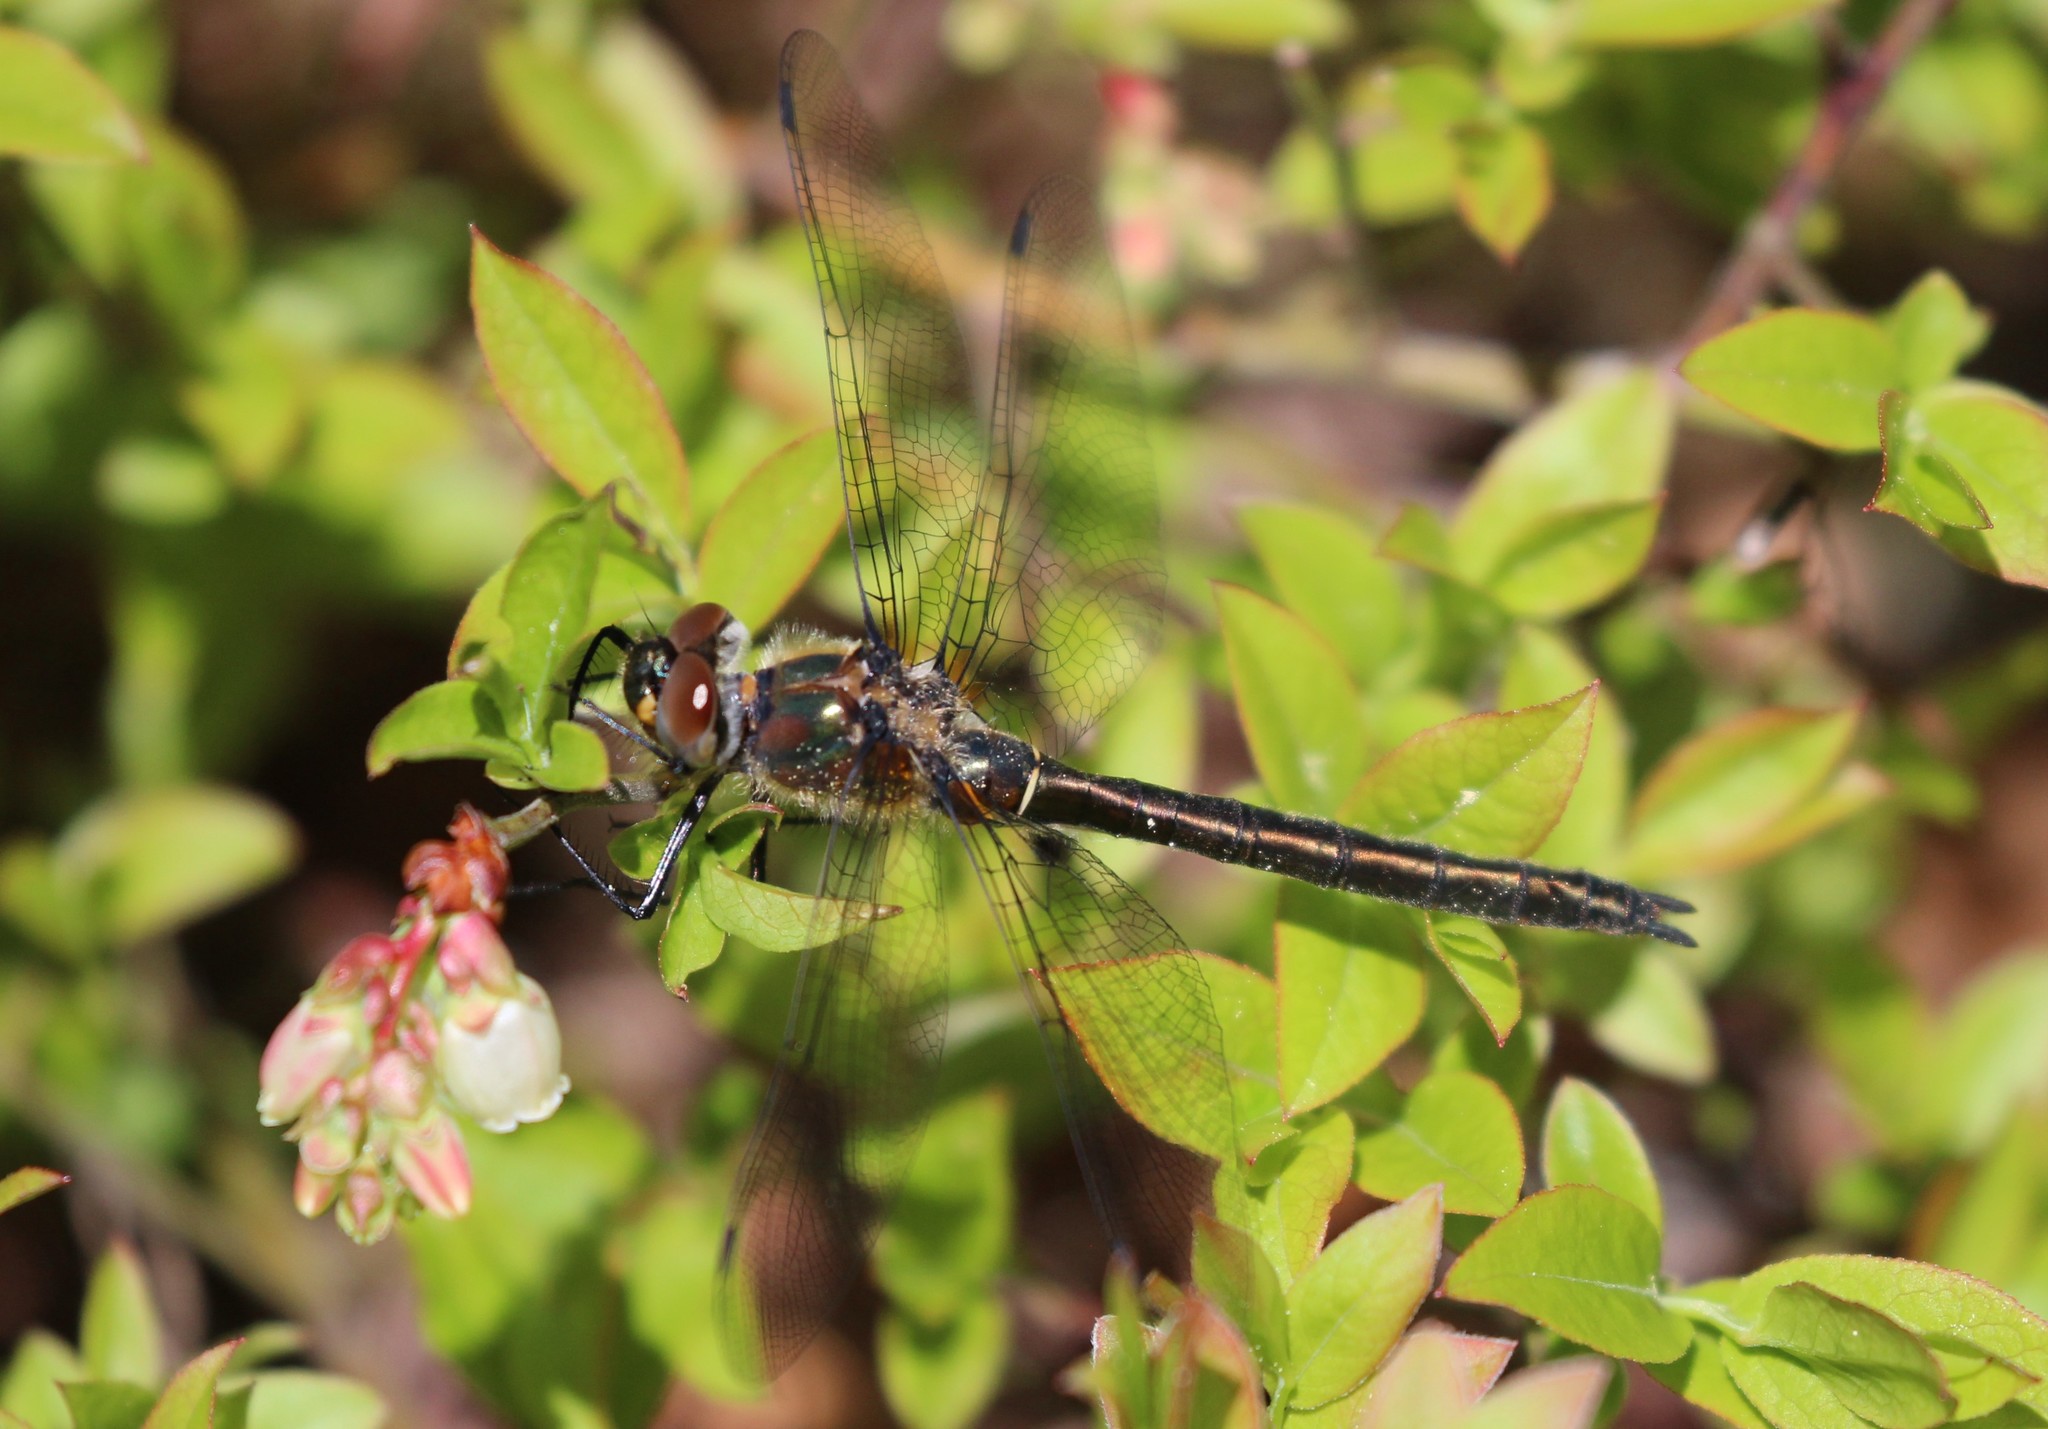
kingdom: Animalia
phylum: Arthropoda
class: Insecta
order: Odonata
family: Corduliidae
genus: Cordulia
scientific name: Cordulia shurtleffii
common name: American emerald
